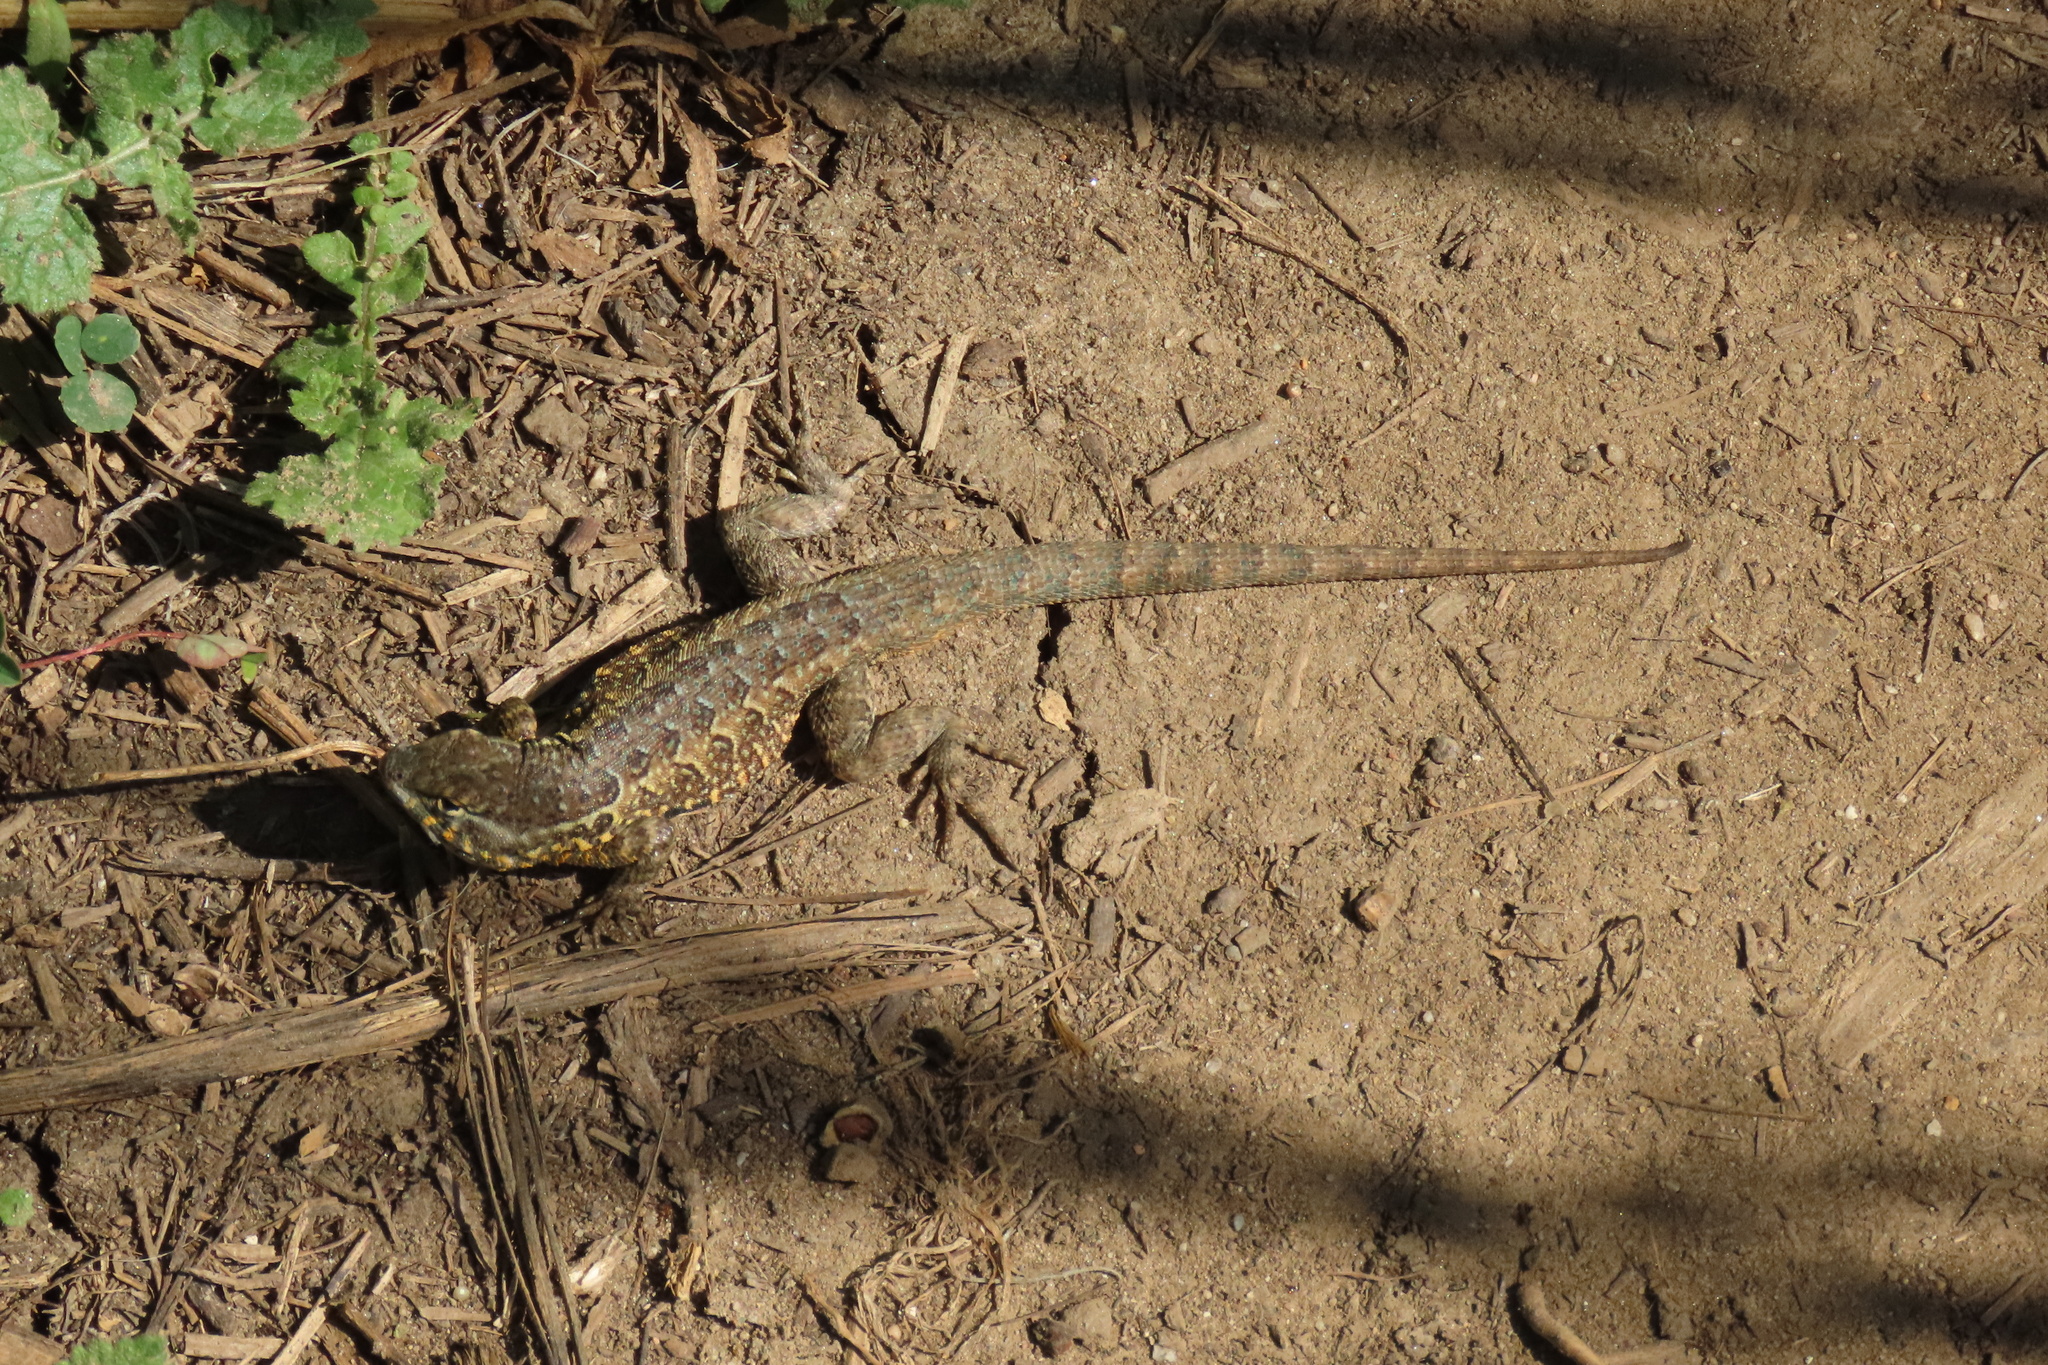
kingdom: Animalia
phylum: Chordata
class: Squamata
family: Phrynosomatidae
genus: Uta
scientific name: Uta stansburiana
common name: Side-blotched lizard
